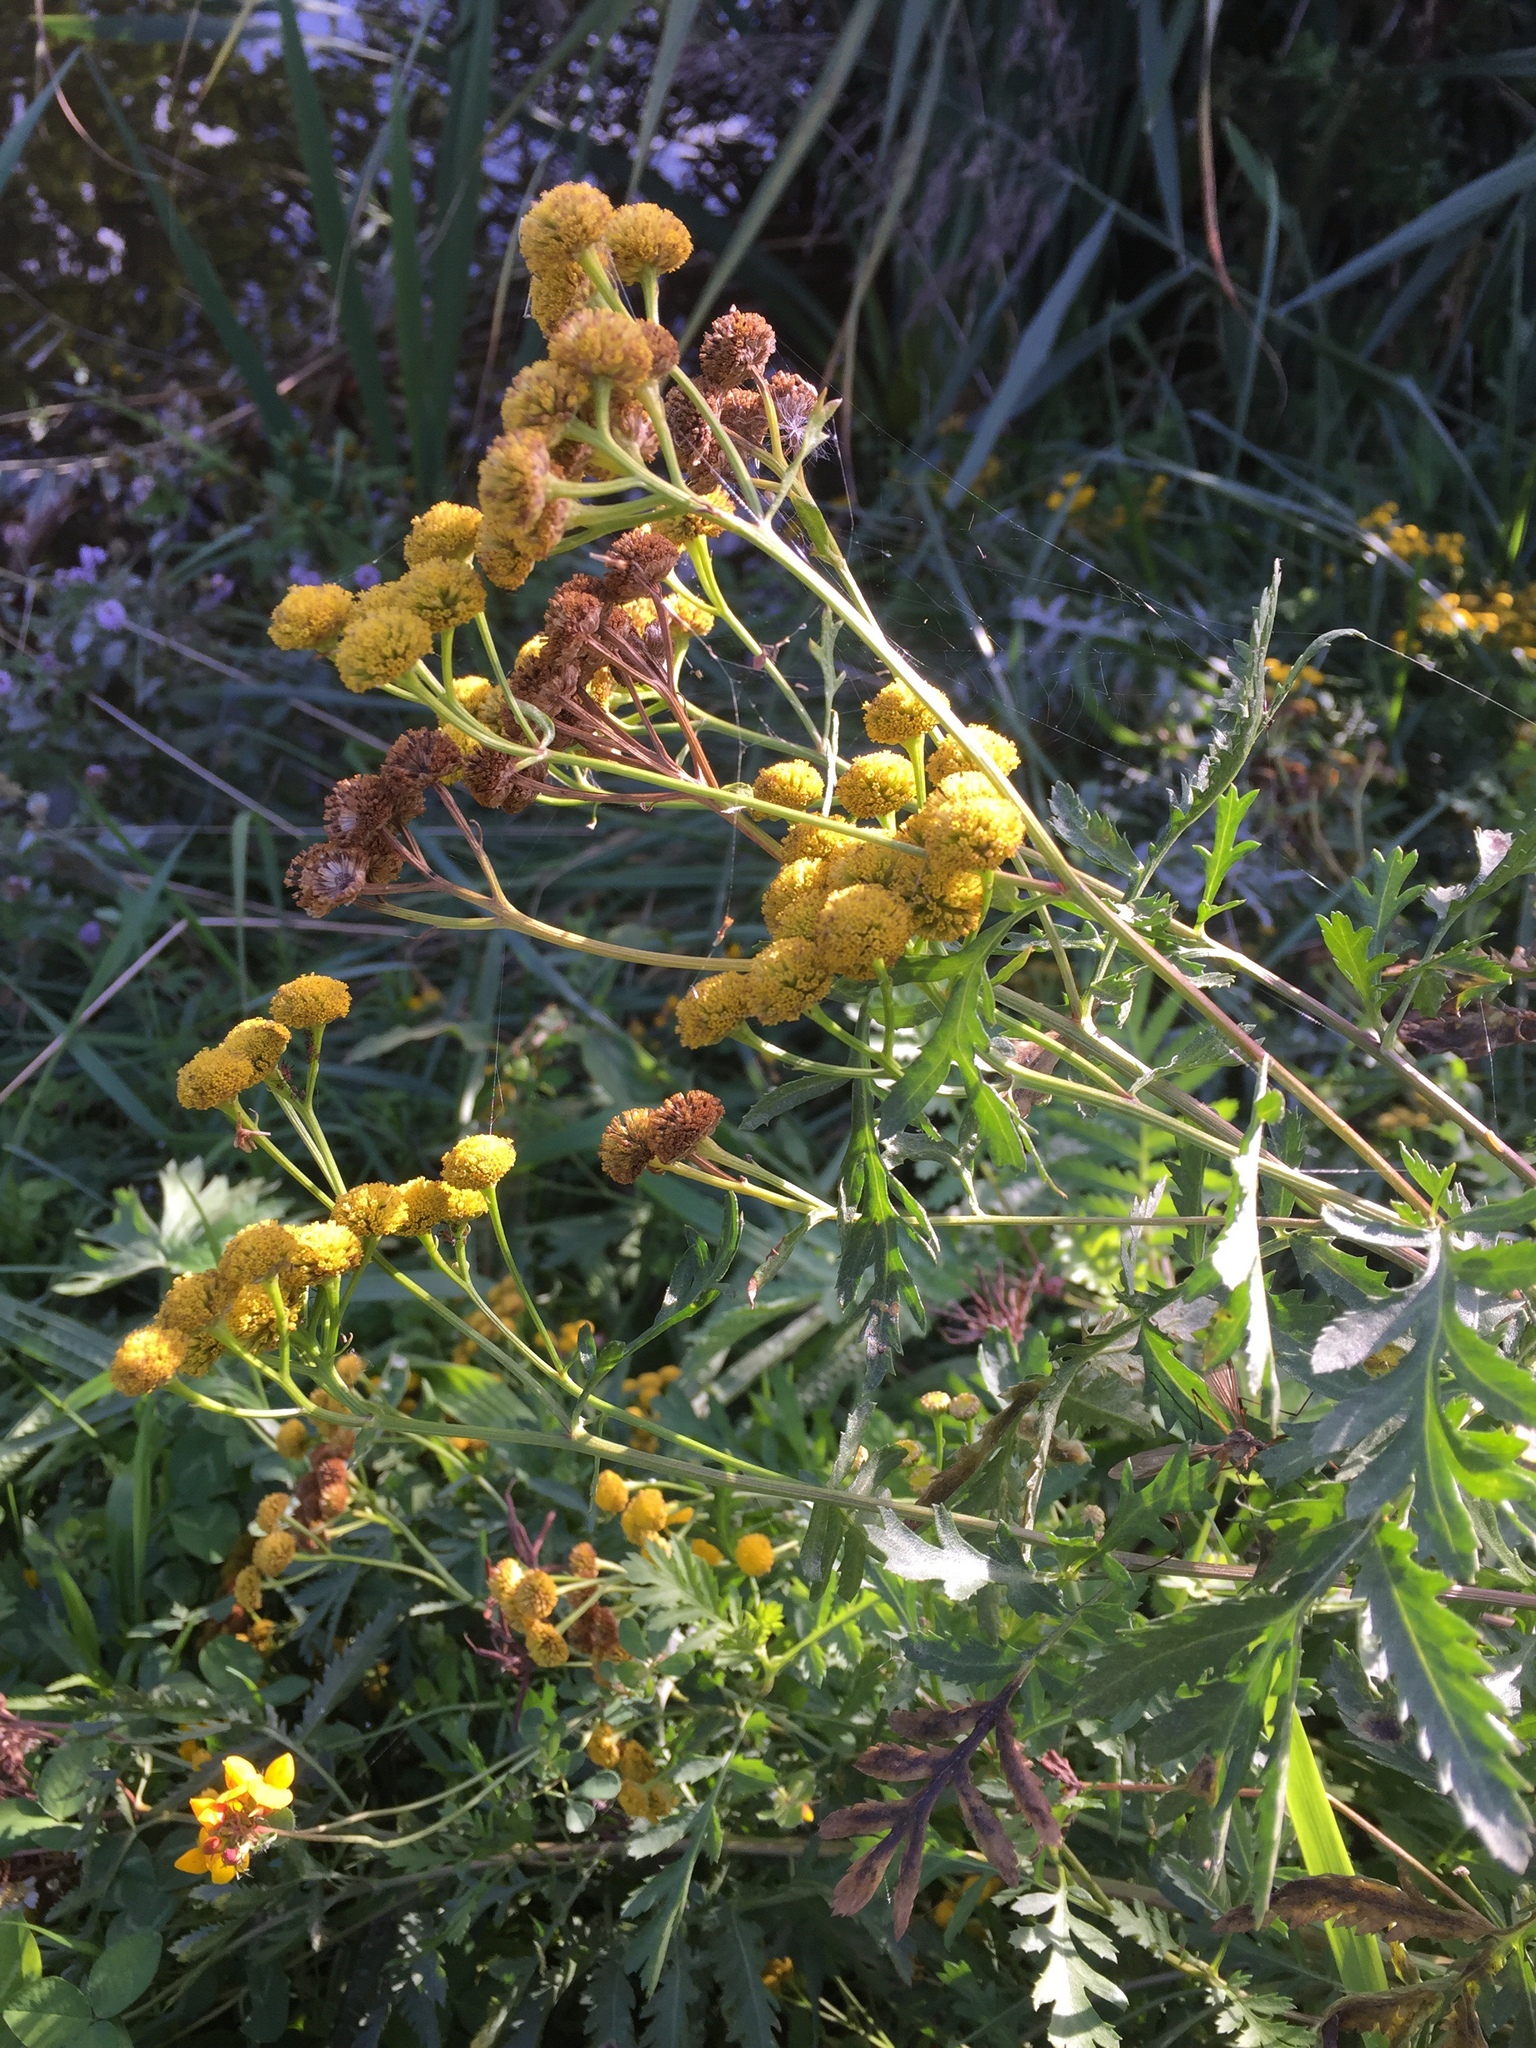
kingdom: Plantae
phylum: Tracheophyta
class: Magnoliopsida
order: Asterales
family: Asteraceae
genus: Tanacetum
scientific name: Tanacetum vulgare
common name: Common tansy
